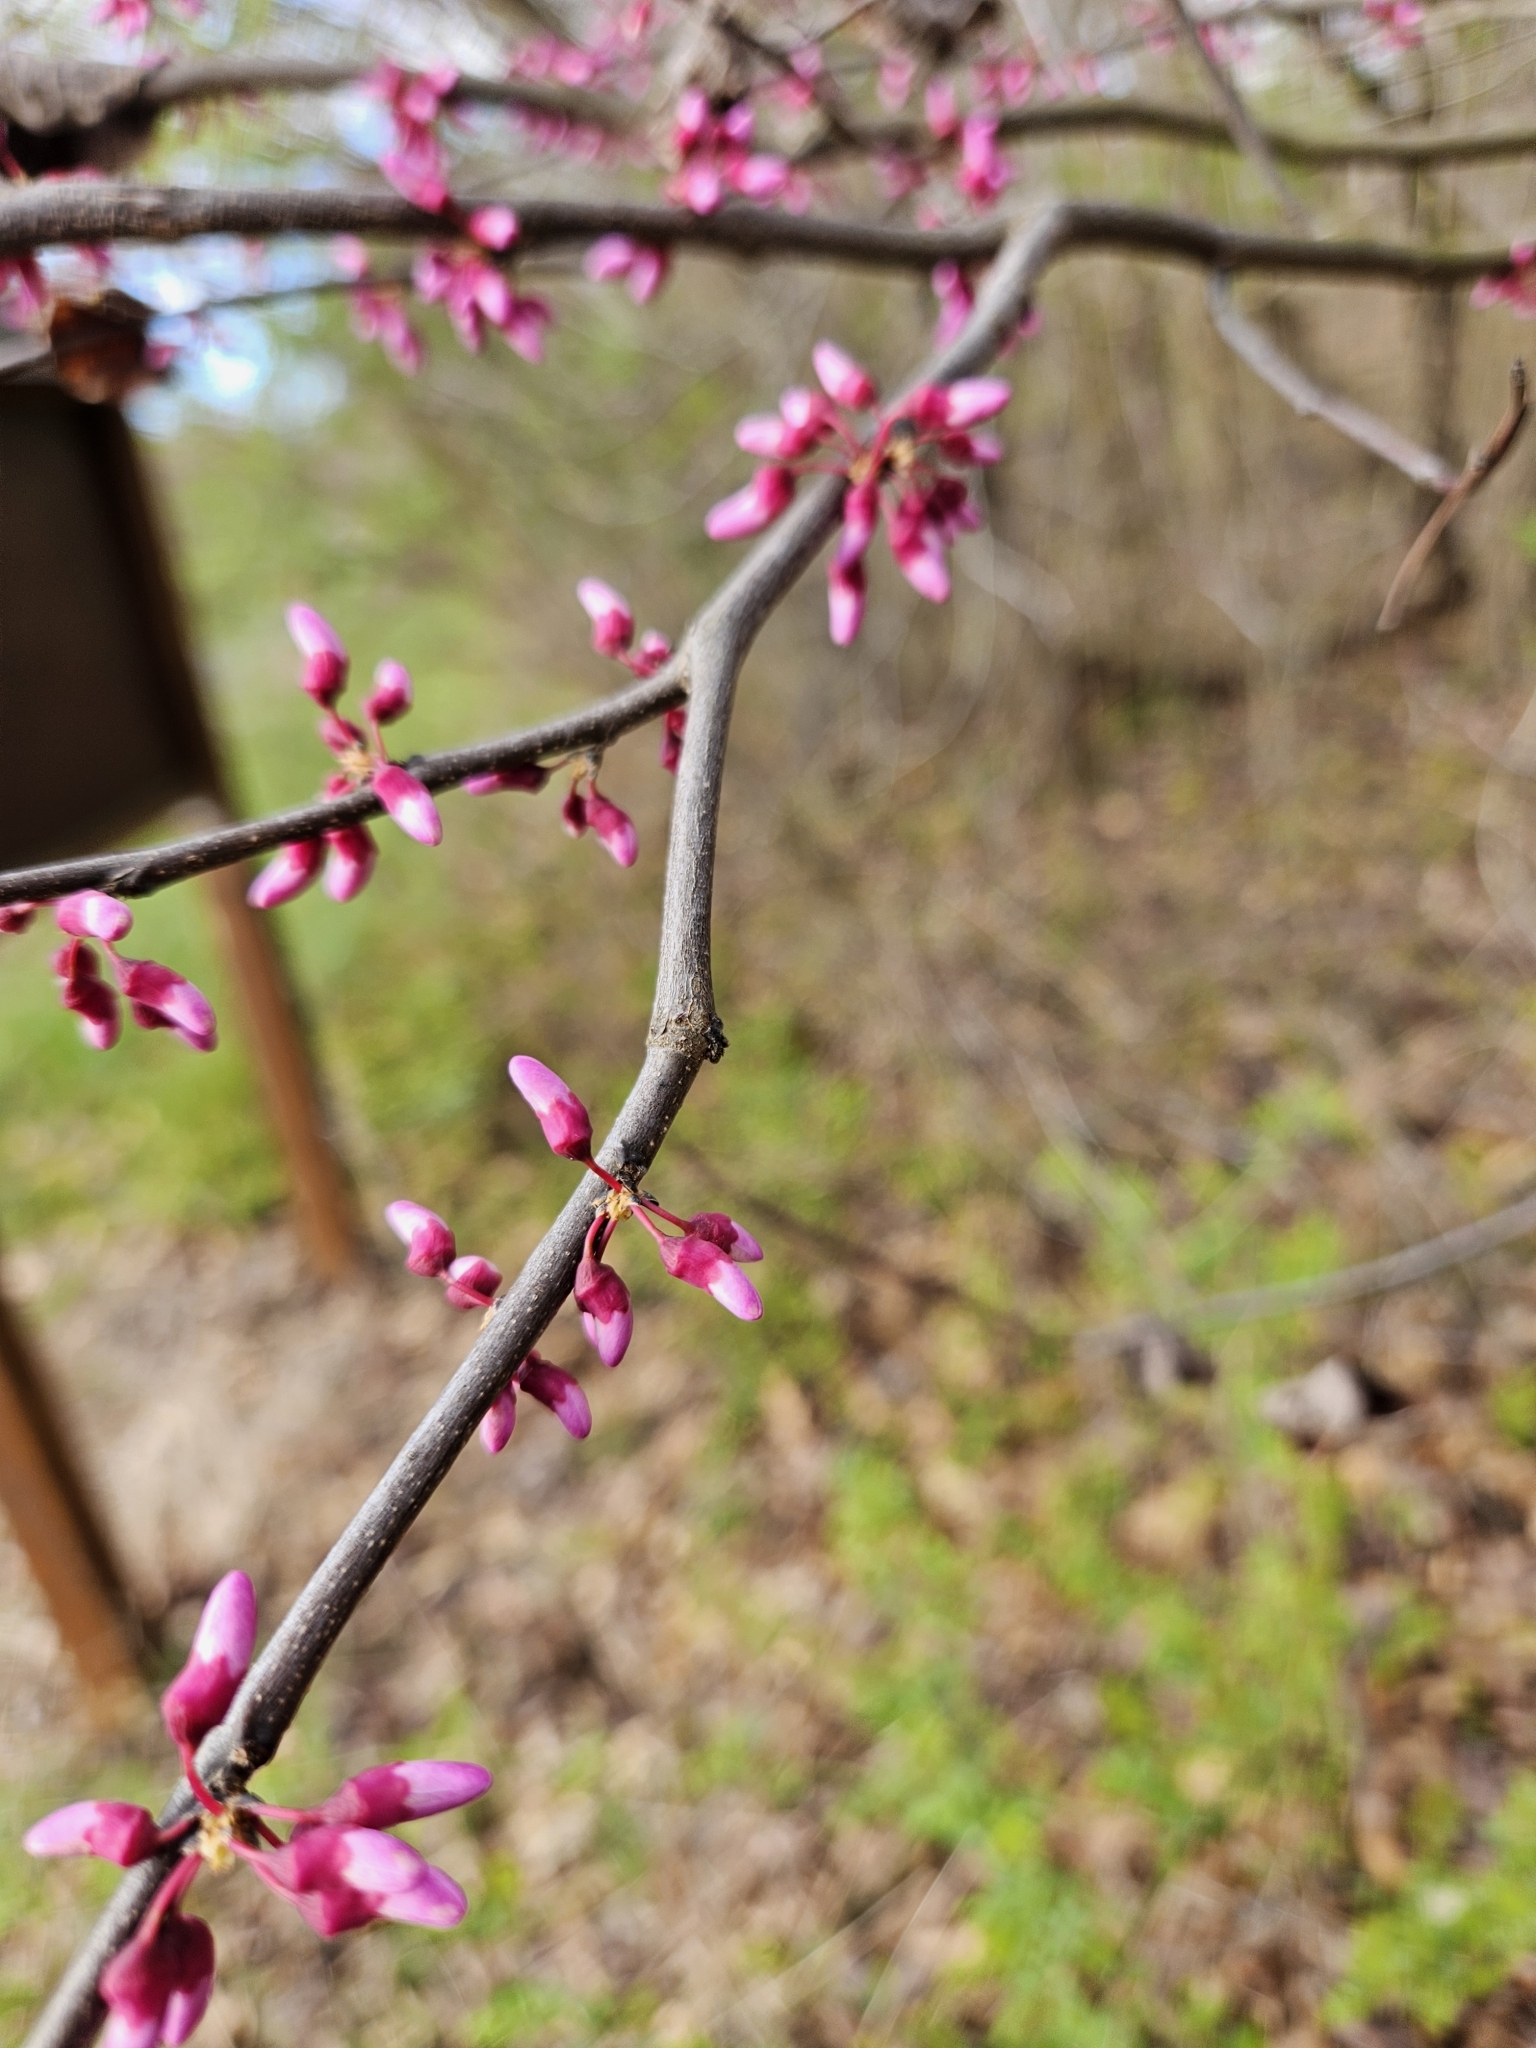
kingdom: Plantae
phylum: Tracheophyta
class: Magnoliopsida
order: Fabales
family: Fabaceae
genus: Cercis
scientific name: Cercis canadensis
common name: Eastern redbud
